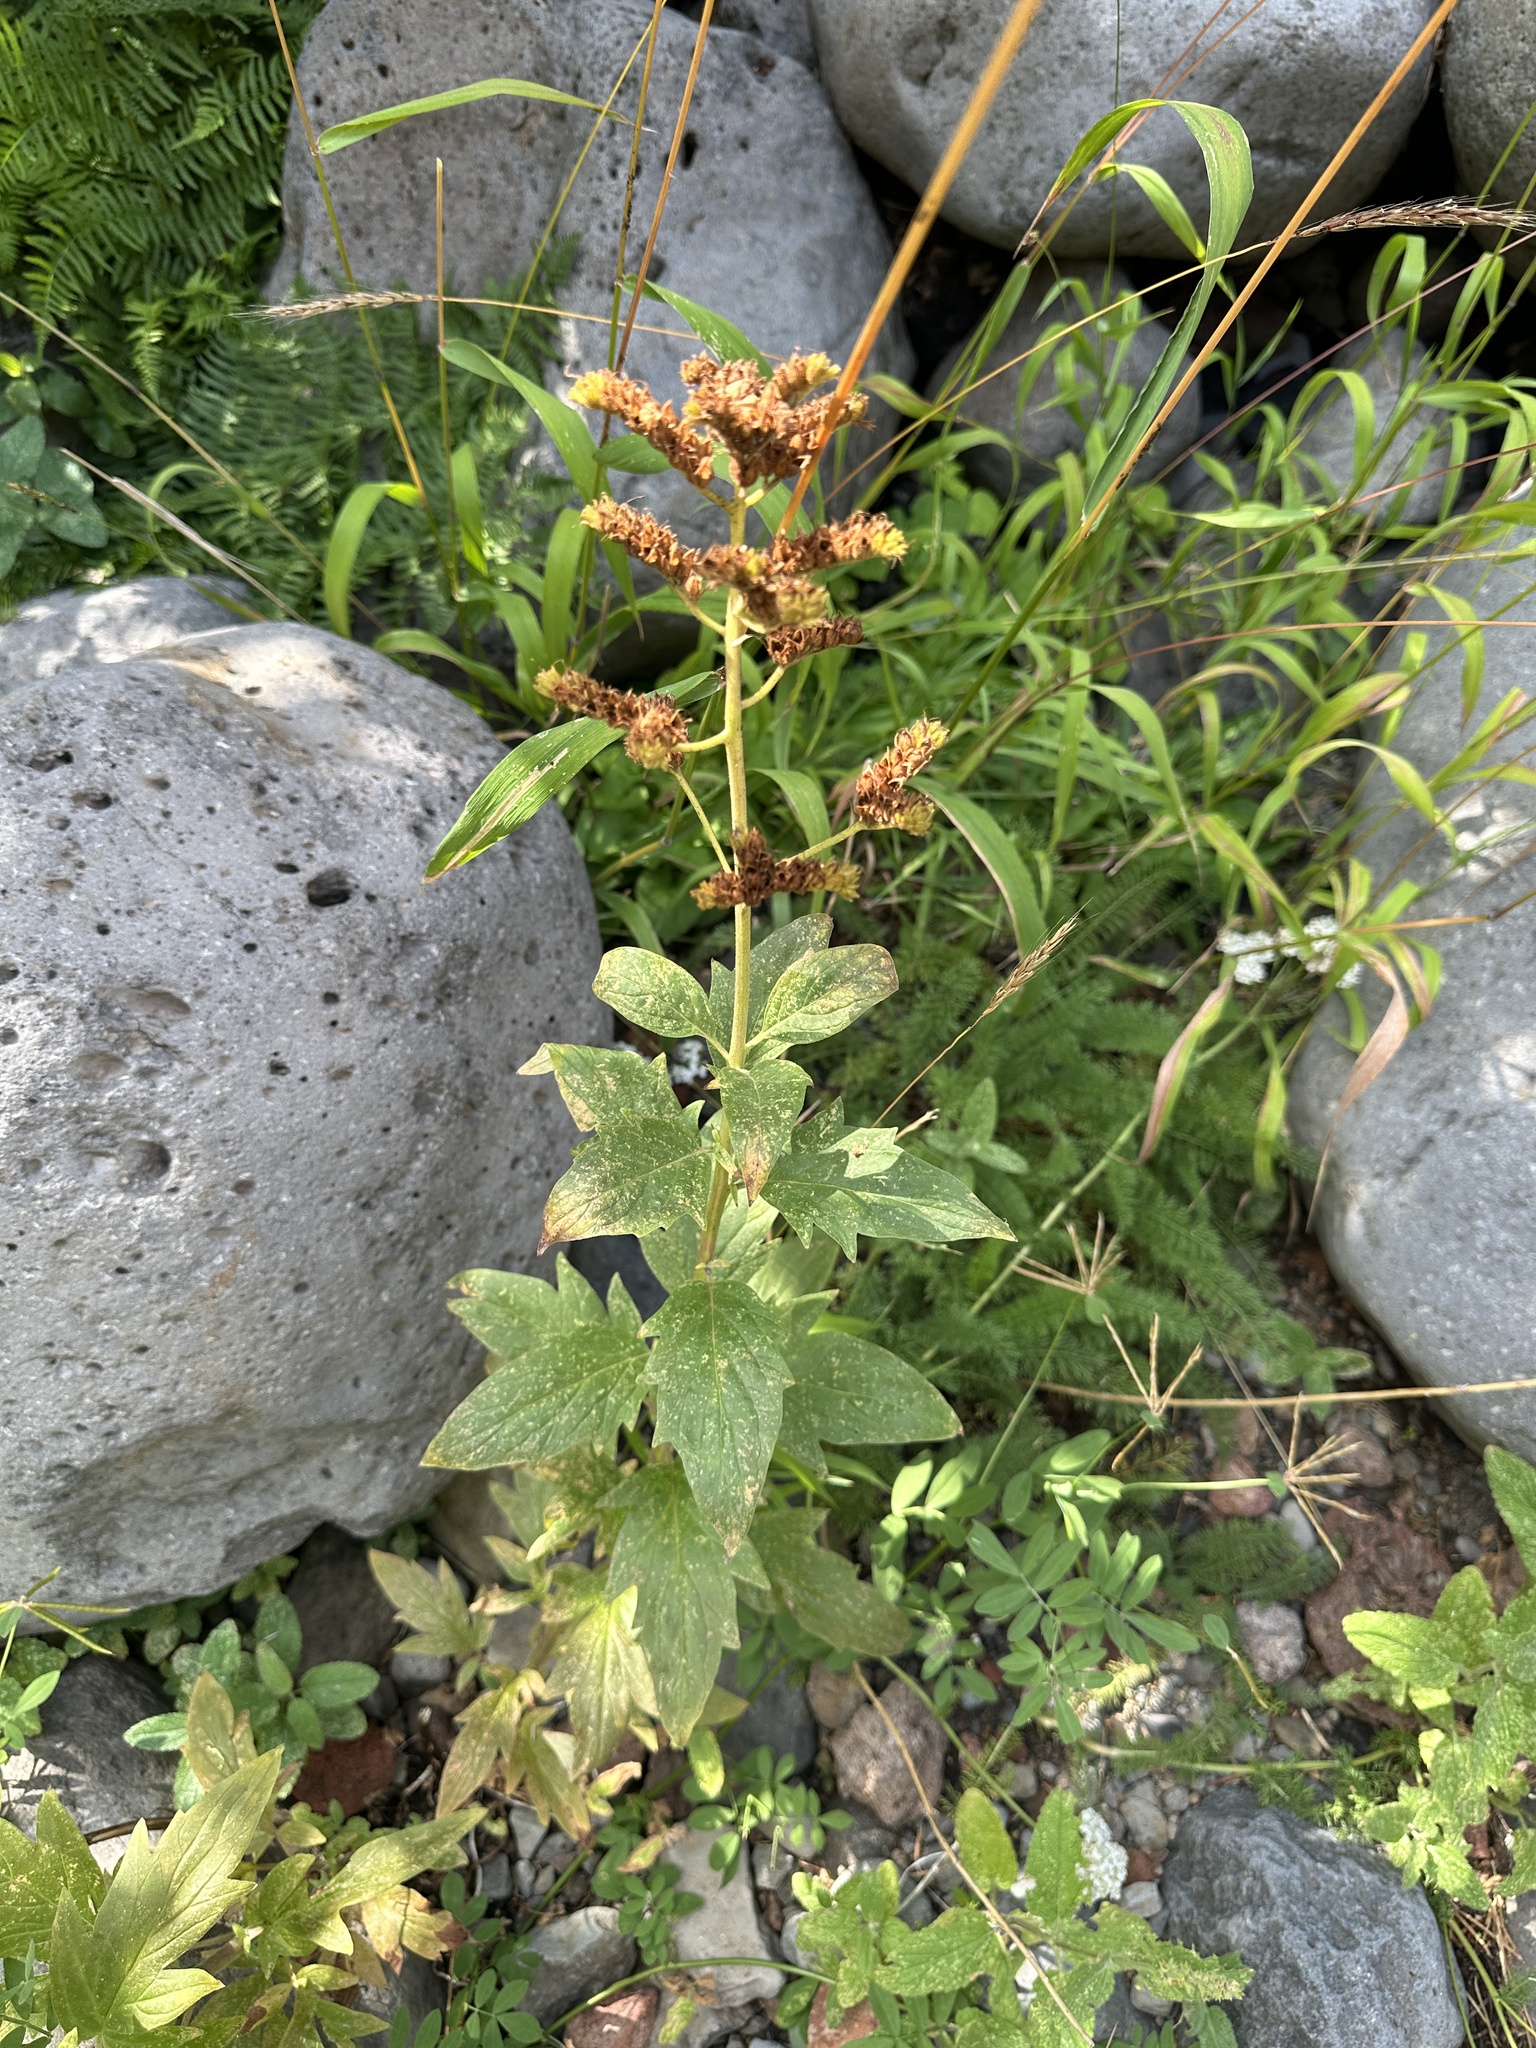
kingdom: Plantae
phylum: Tracheophyta
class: Magnoliopsida
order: Boraginales
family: Hydrophyllaceae
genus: Phacelia
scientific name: Phacelia procera
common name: Tall phacelia
